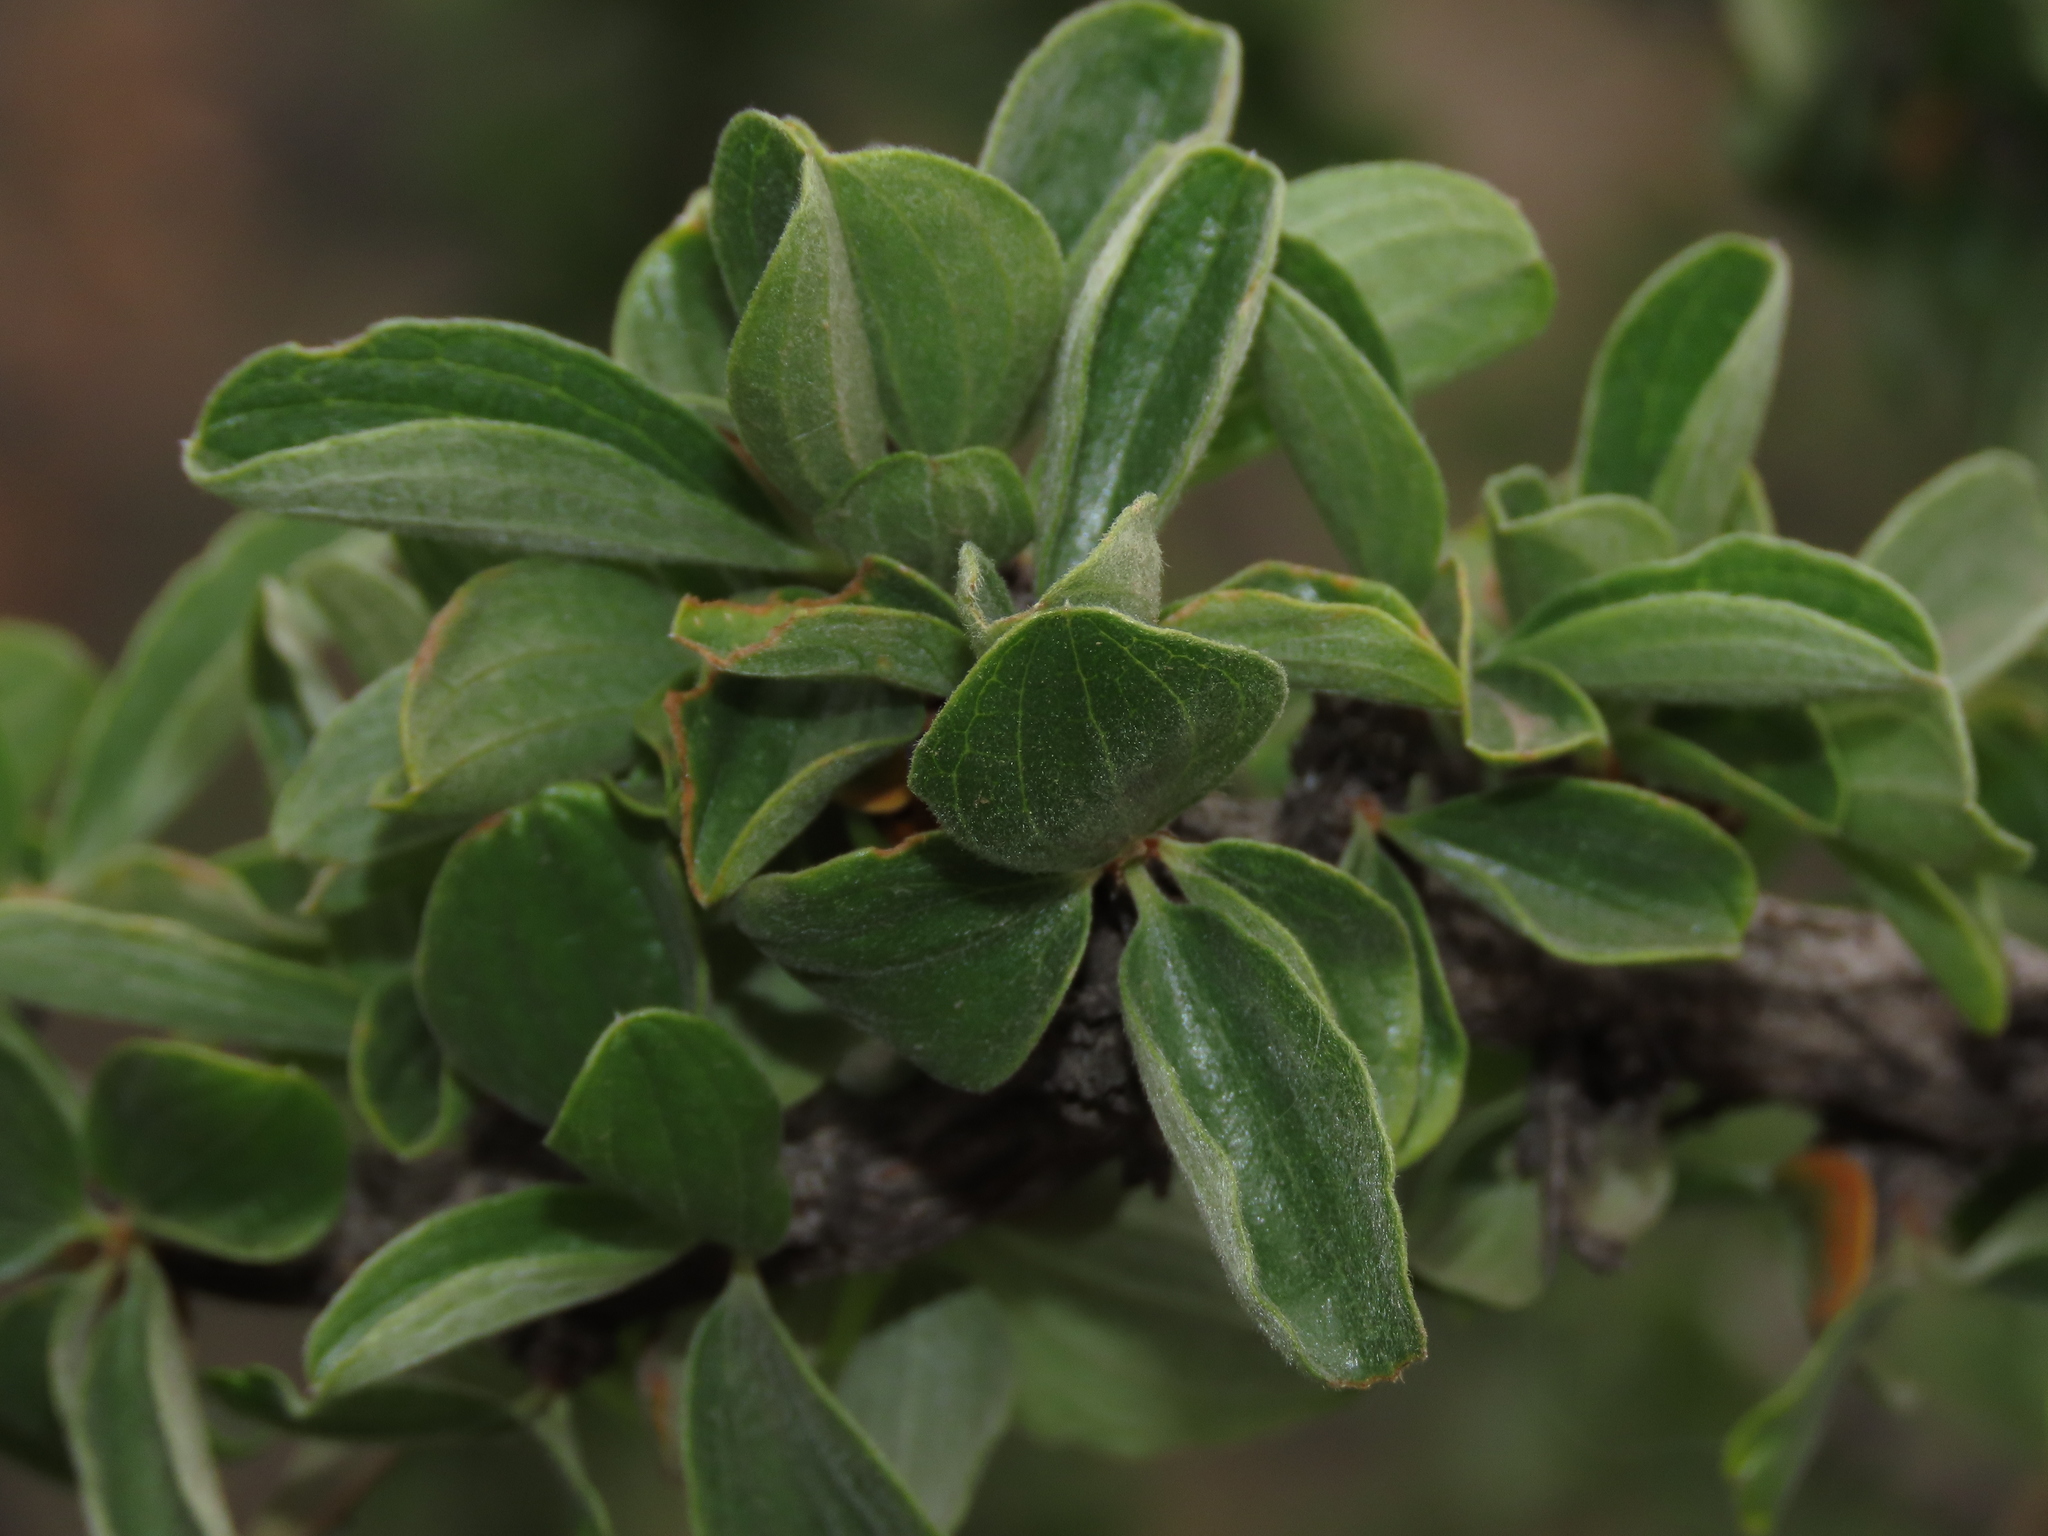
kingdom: Plantae
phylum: Tracheophyta
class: Magnoliopsida
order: Rosales
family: Rhamnaceae
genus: Trevoa
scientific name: Trevoa quinquenervia
